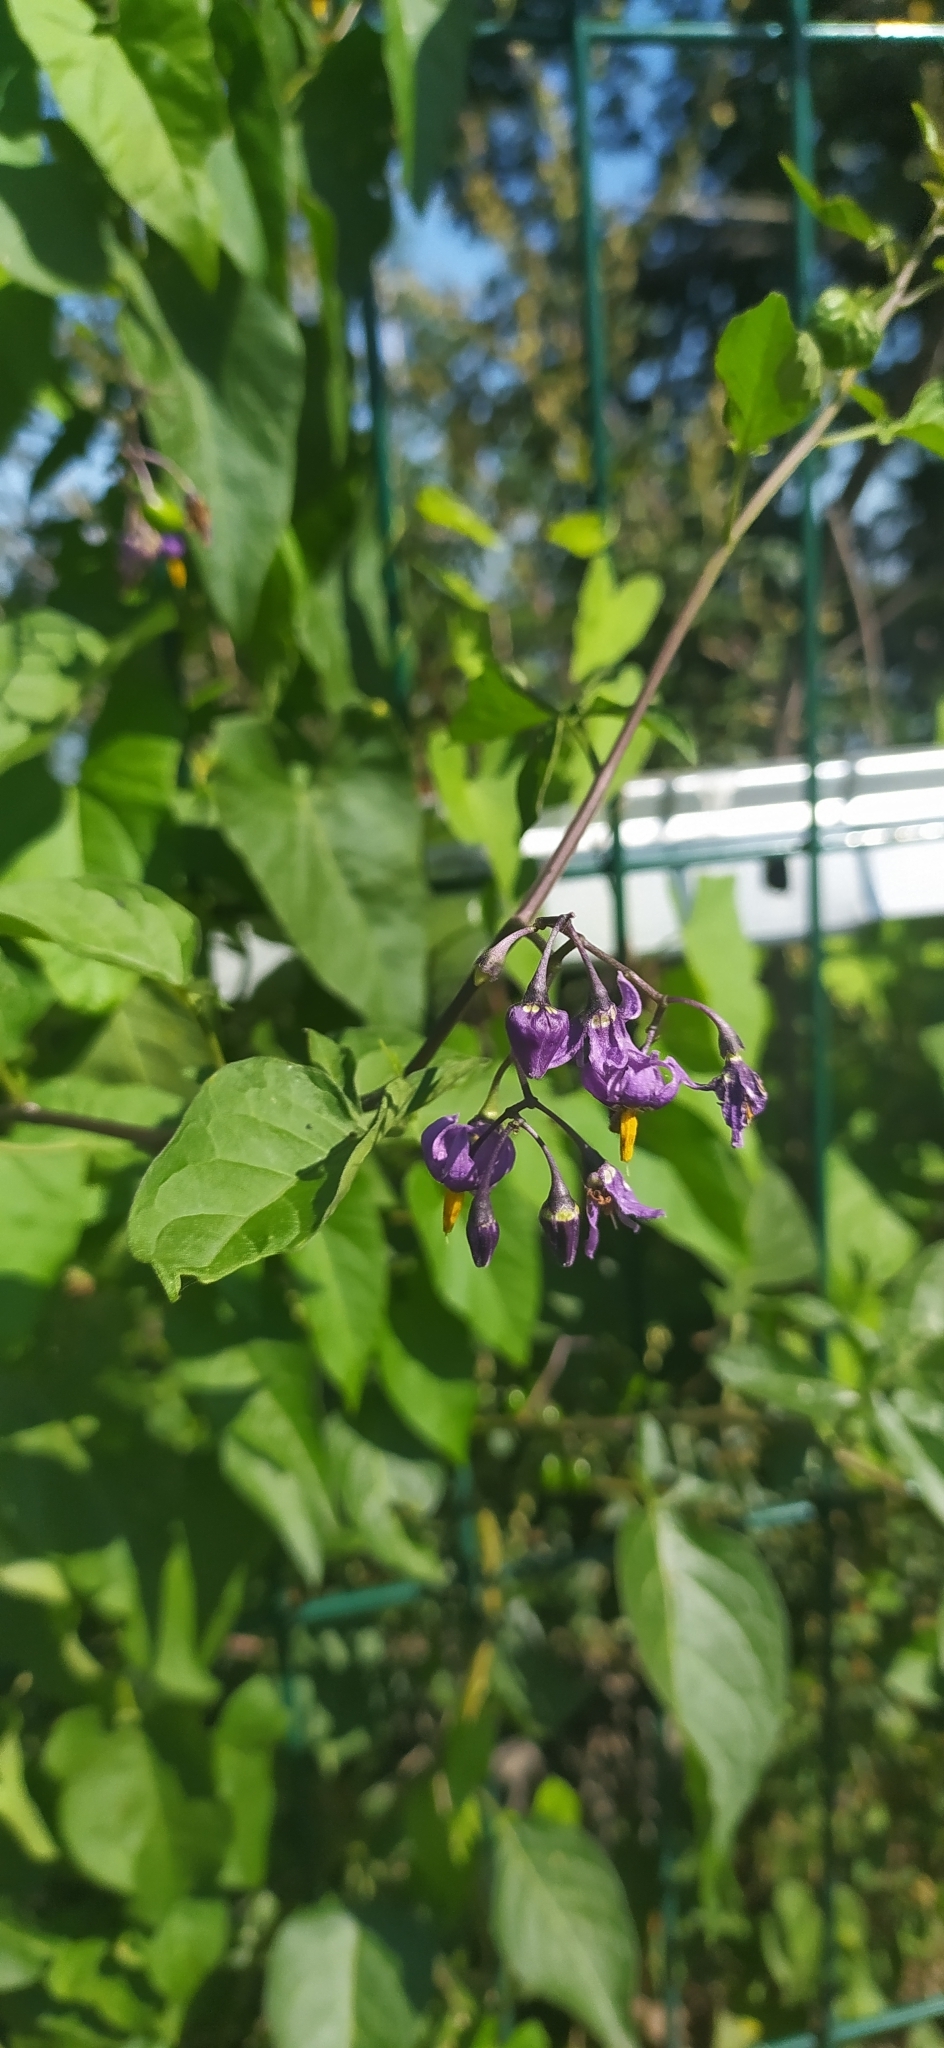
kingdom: Plantae
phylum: Tracheophyta
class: Magnoliopsida
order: Solanales
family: Solanaceae
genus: Solanum
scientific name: Solanum dulcamara
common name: Climbing nightshade
